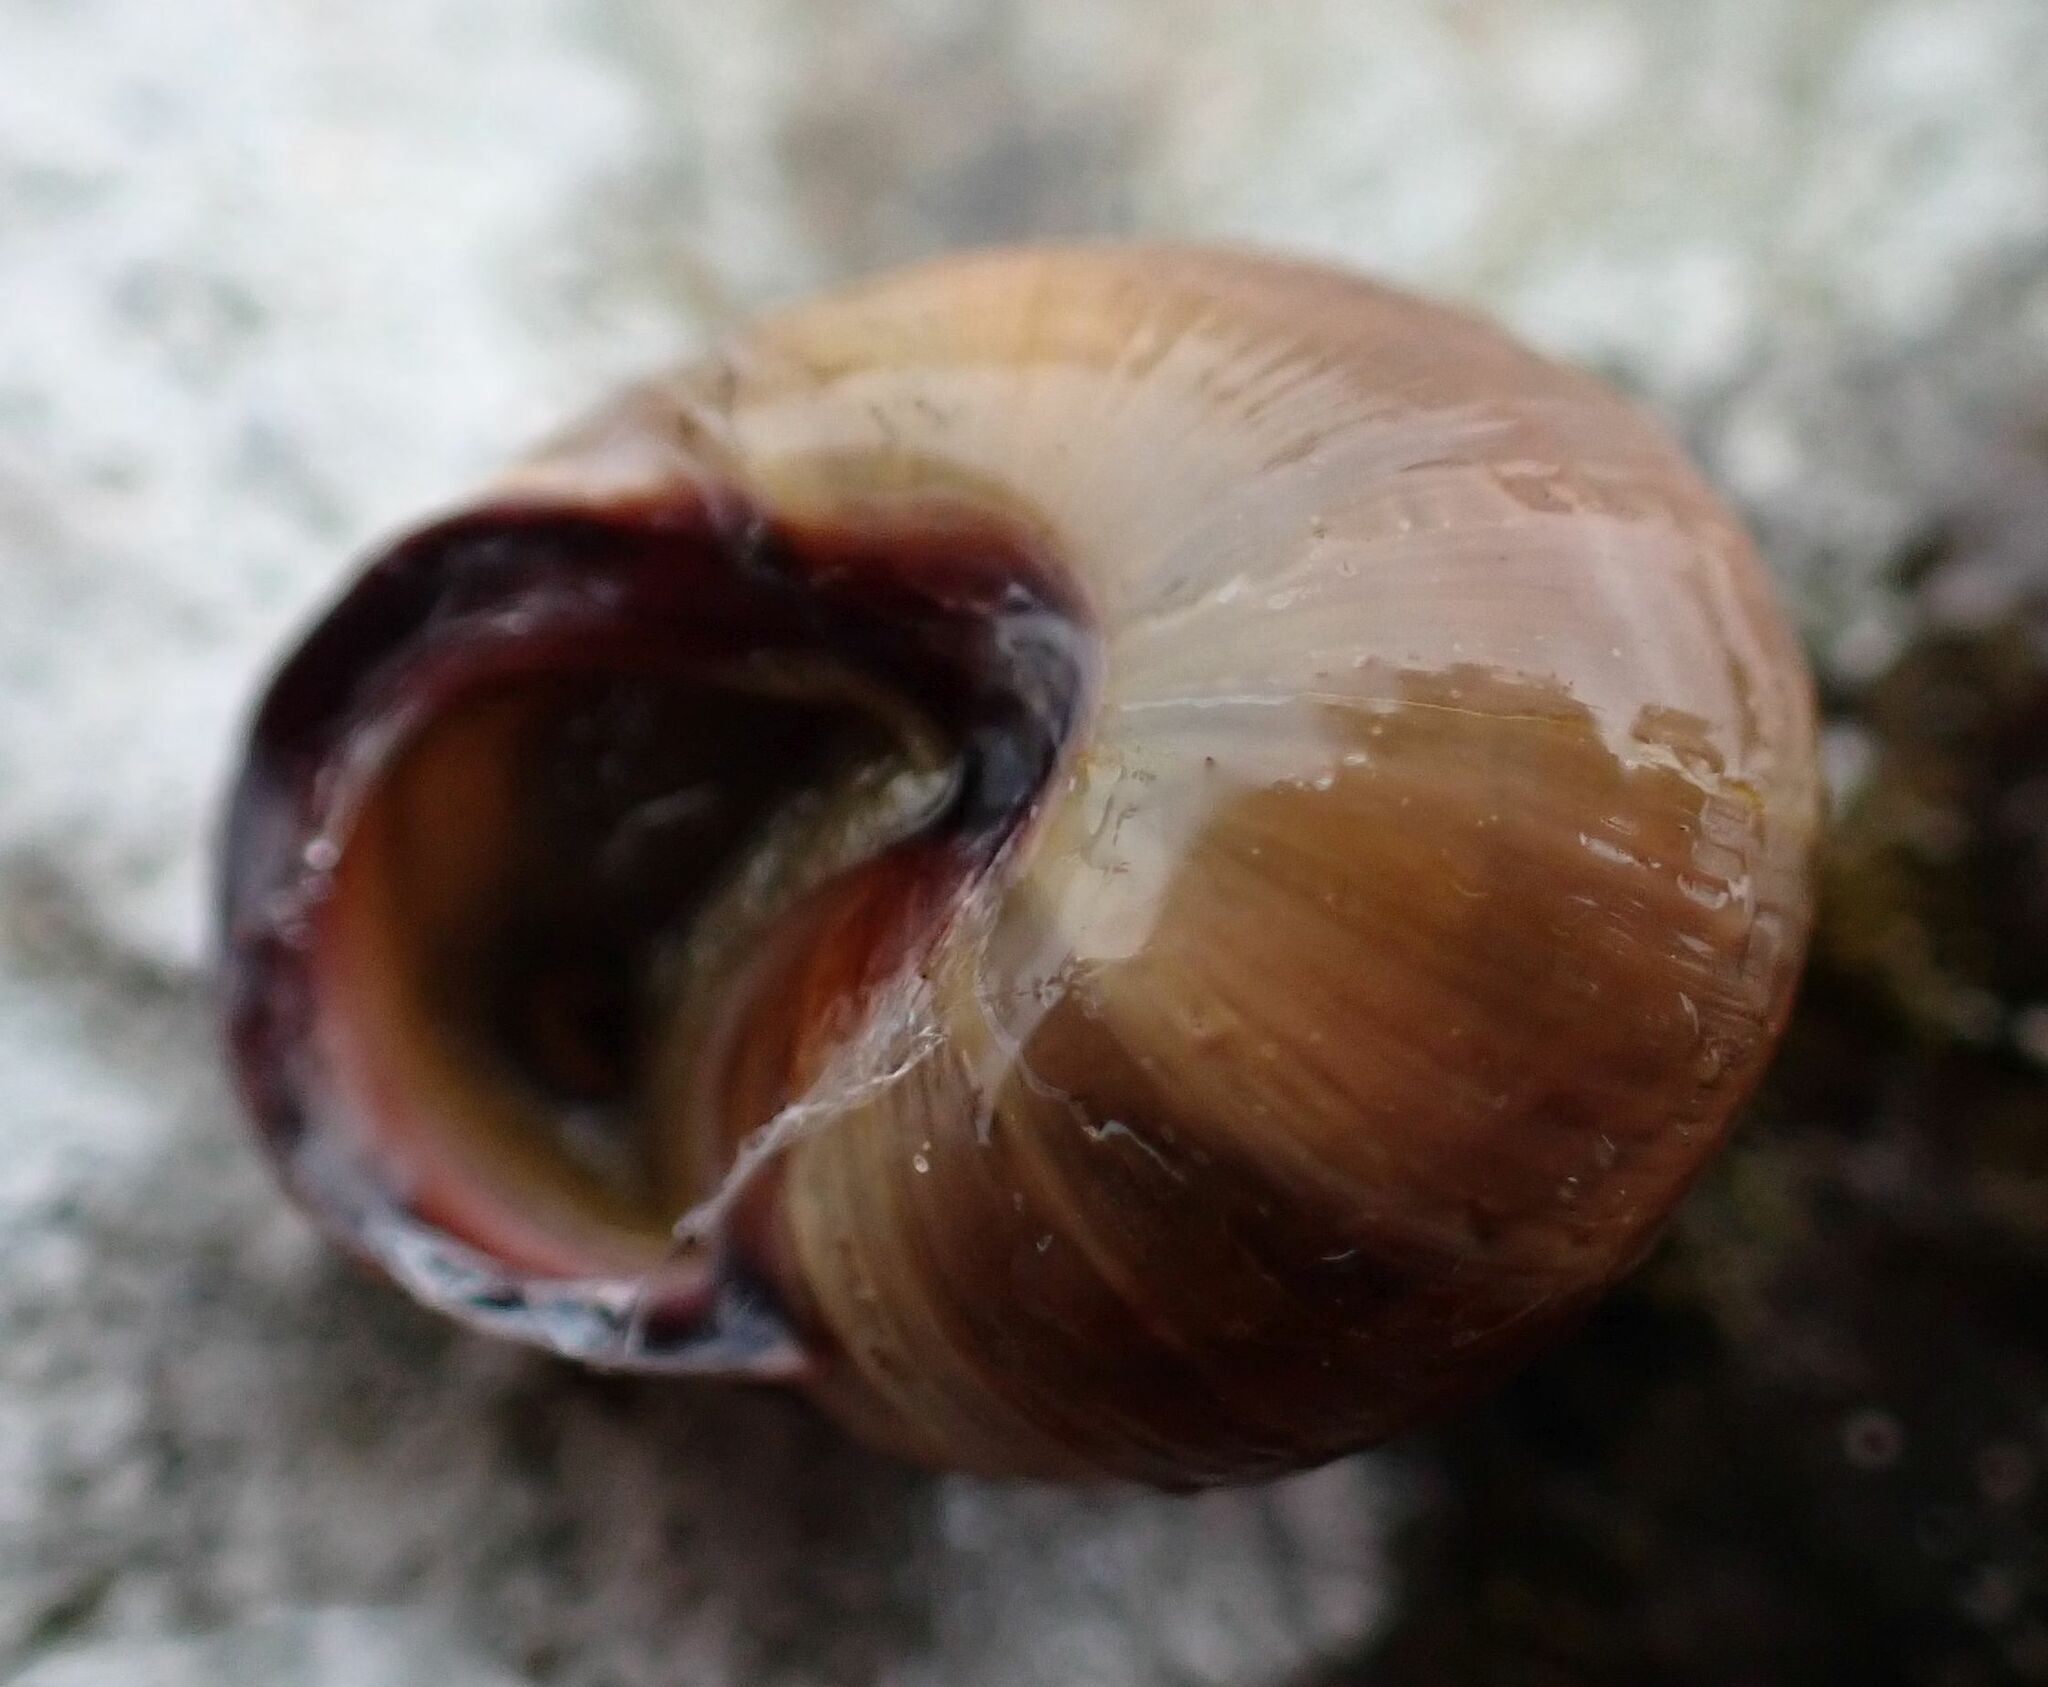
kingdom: Animalia
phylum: Mollusca
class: Gastropoda
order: Stylommatophora
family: Helicidae
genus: Cepaea
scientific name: Cepaea nemoralis
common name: Grovesnail
